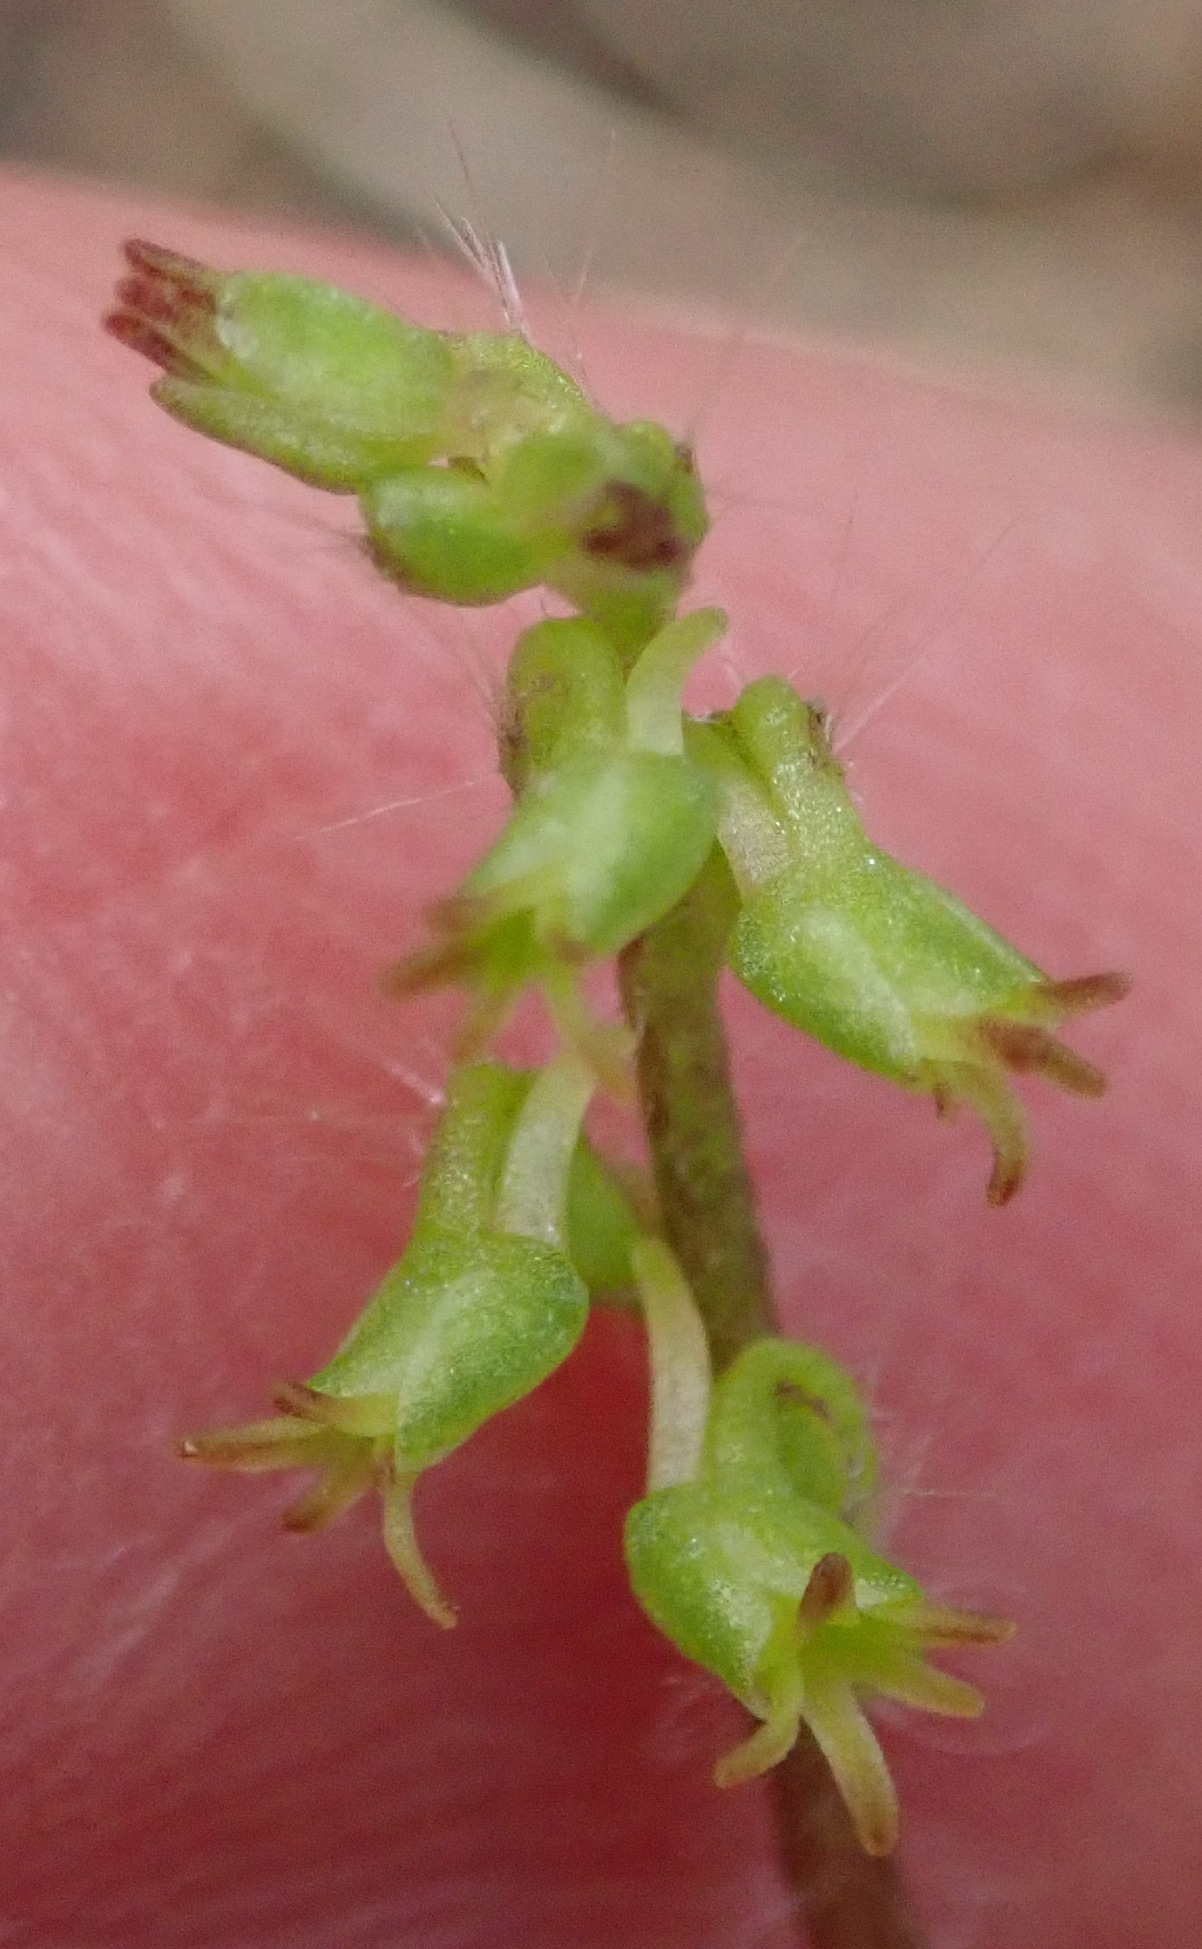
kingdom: Plantae
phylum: Tracheophyta
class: Liliopsida
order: Asparagales
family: Orchidaceae
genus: Holothrix
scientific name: Holothrix villosa
